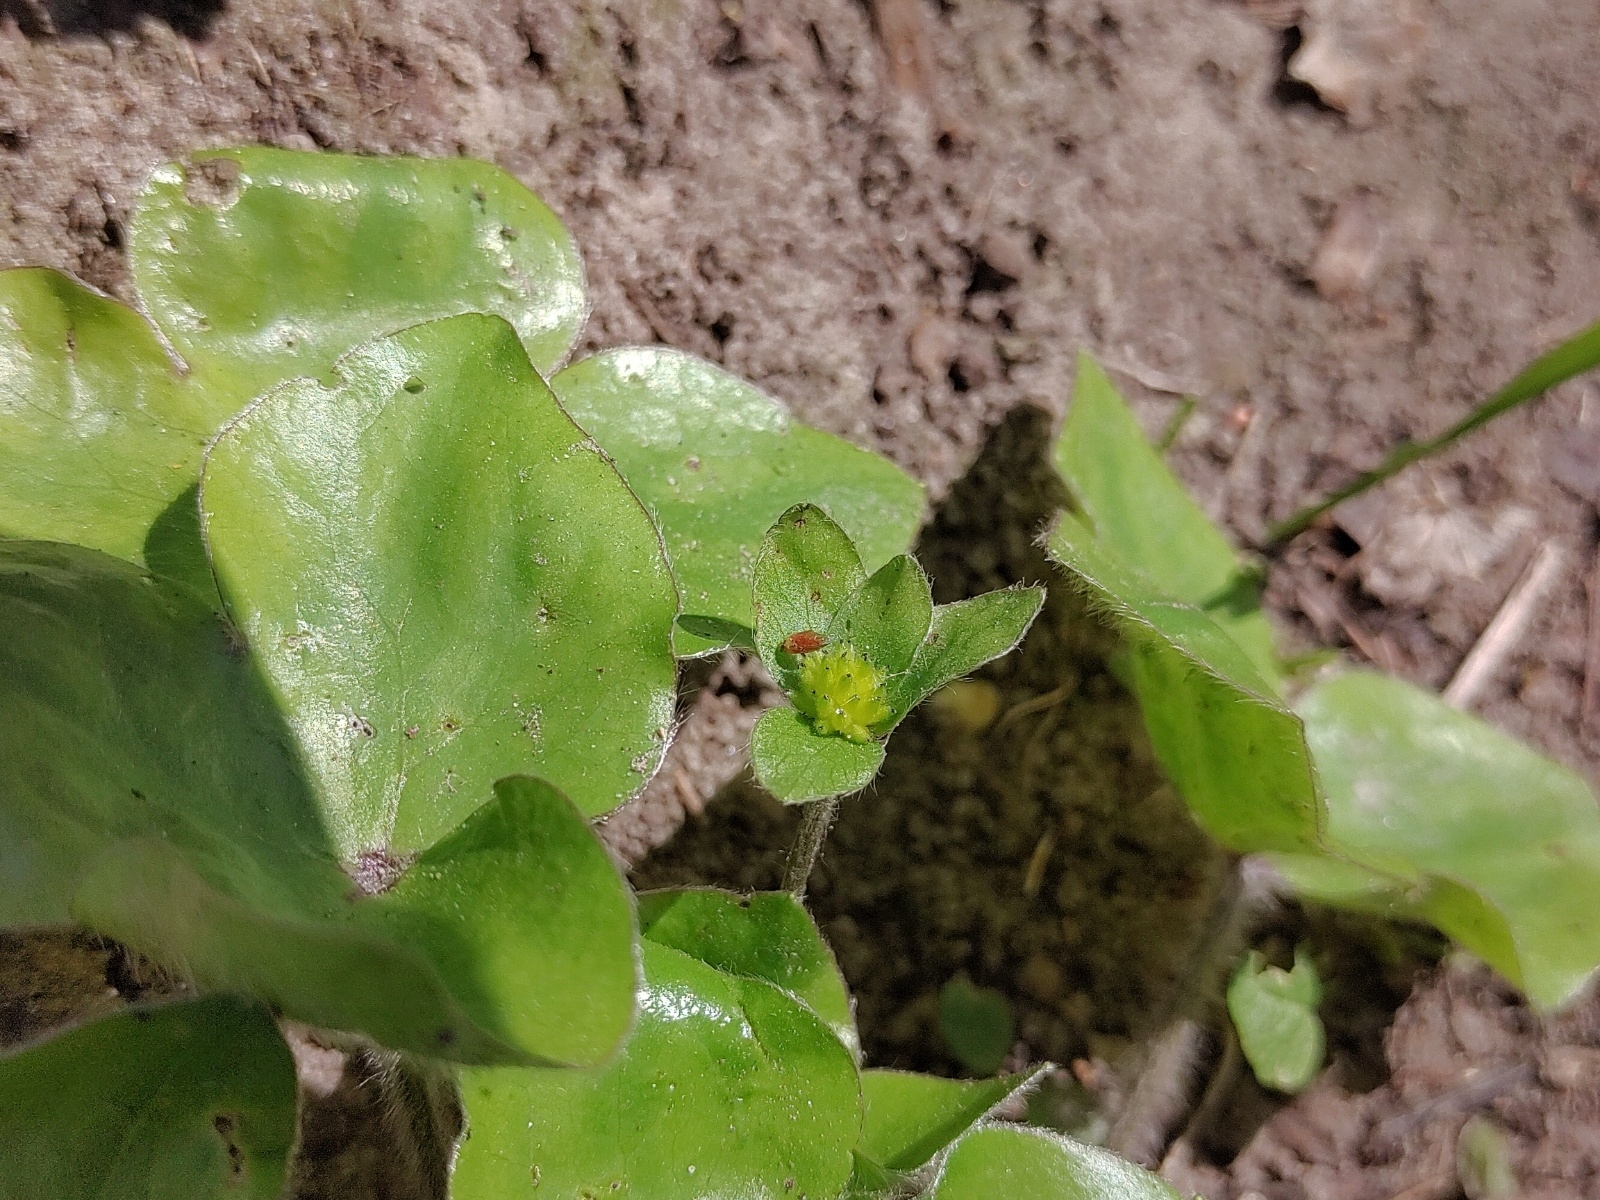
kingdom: Plantae
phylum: Tracheophyta
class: Magnoliopsida
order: Ranunculales
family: Ranunculaceae
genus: Hepatica
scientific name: Hepatica nobilis
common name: Liverleaf
